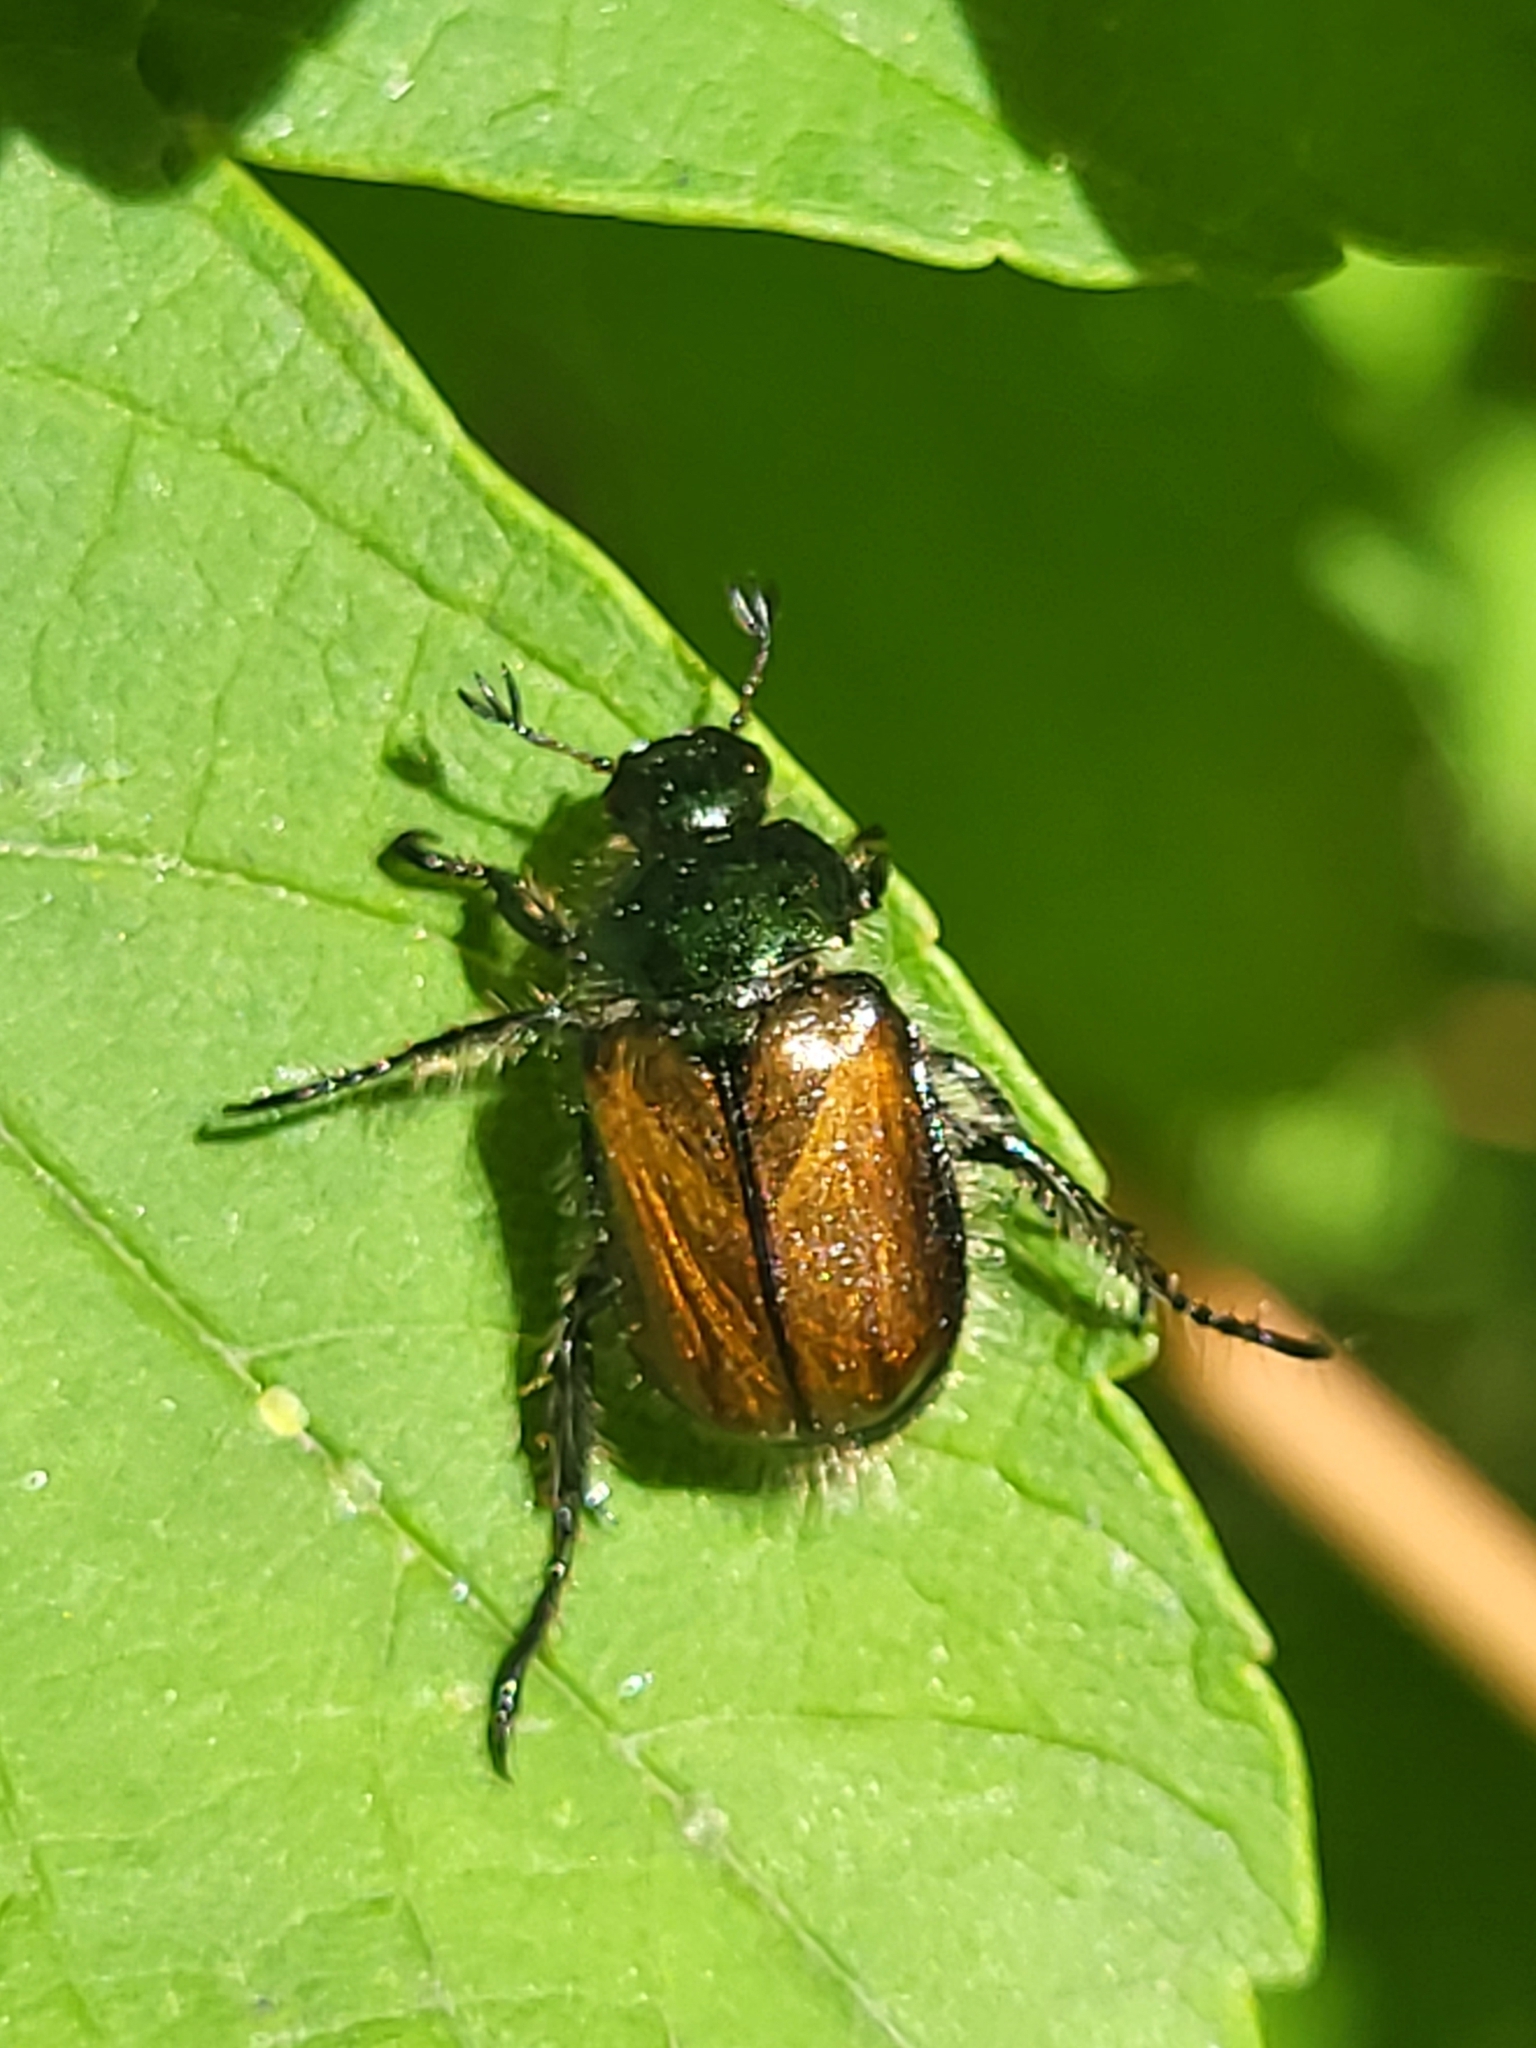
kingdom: Animalia
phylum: Arthropoda
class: Insecta
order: Coleoptera
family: Scarabaeidae
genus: Phyllopertha
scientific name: Phyllopertha horticola
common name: Garden chafer
